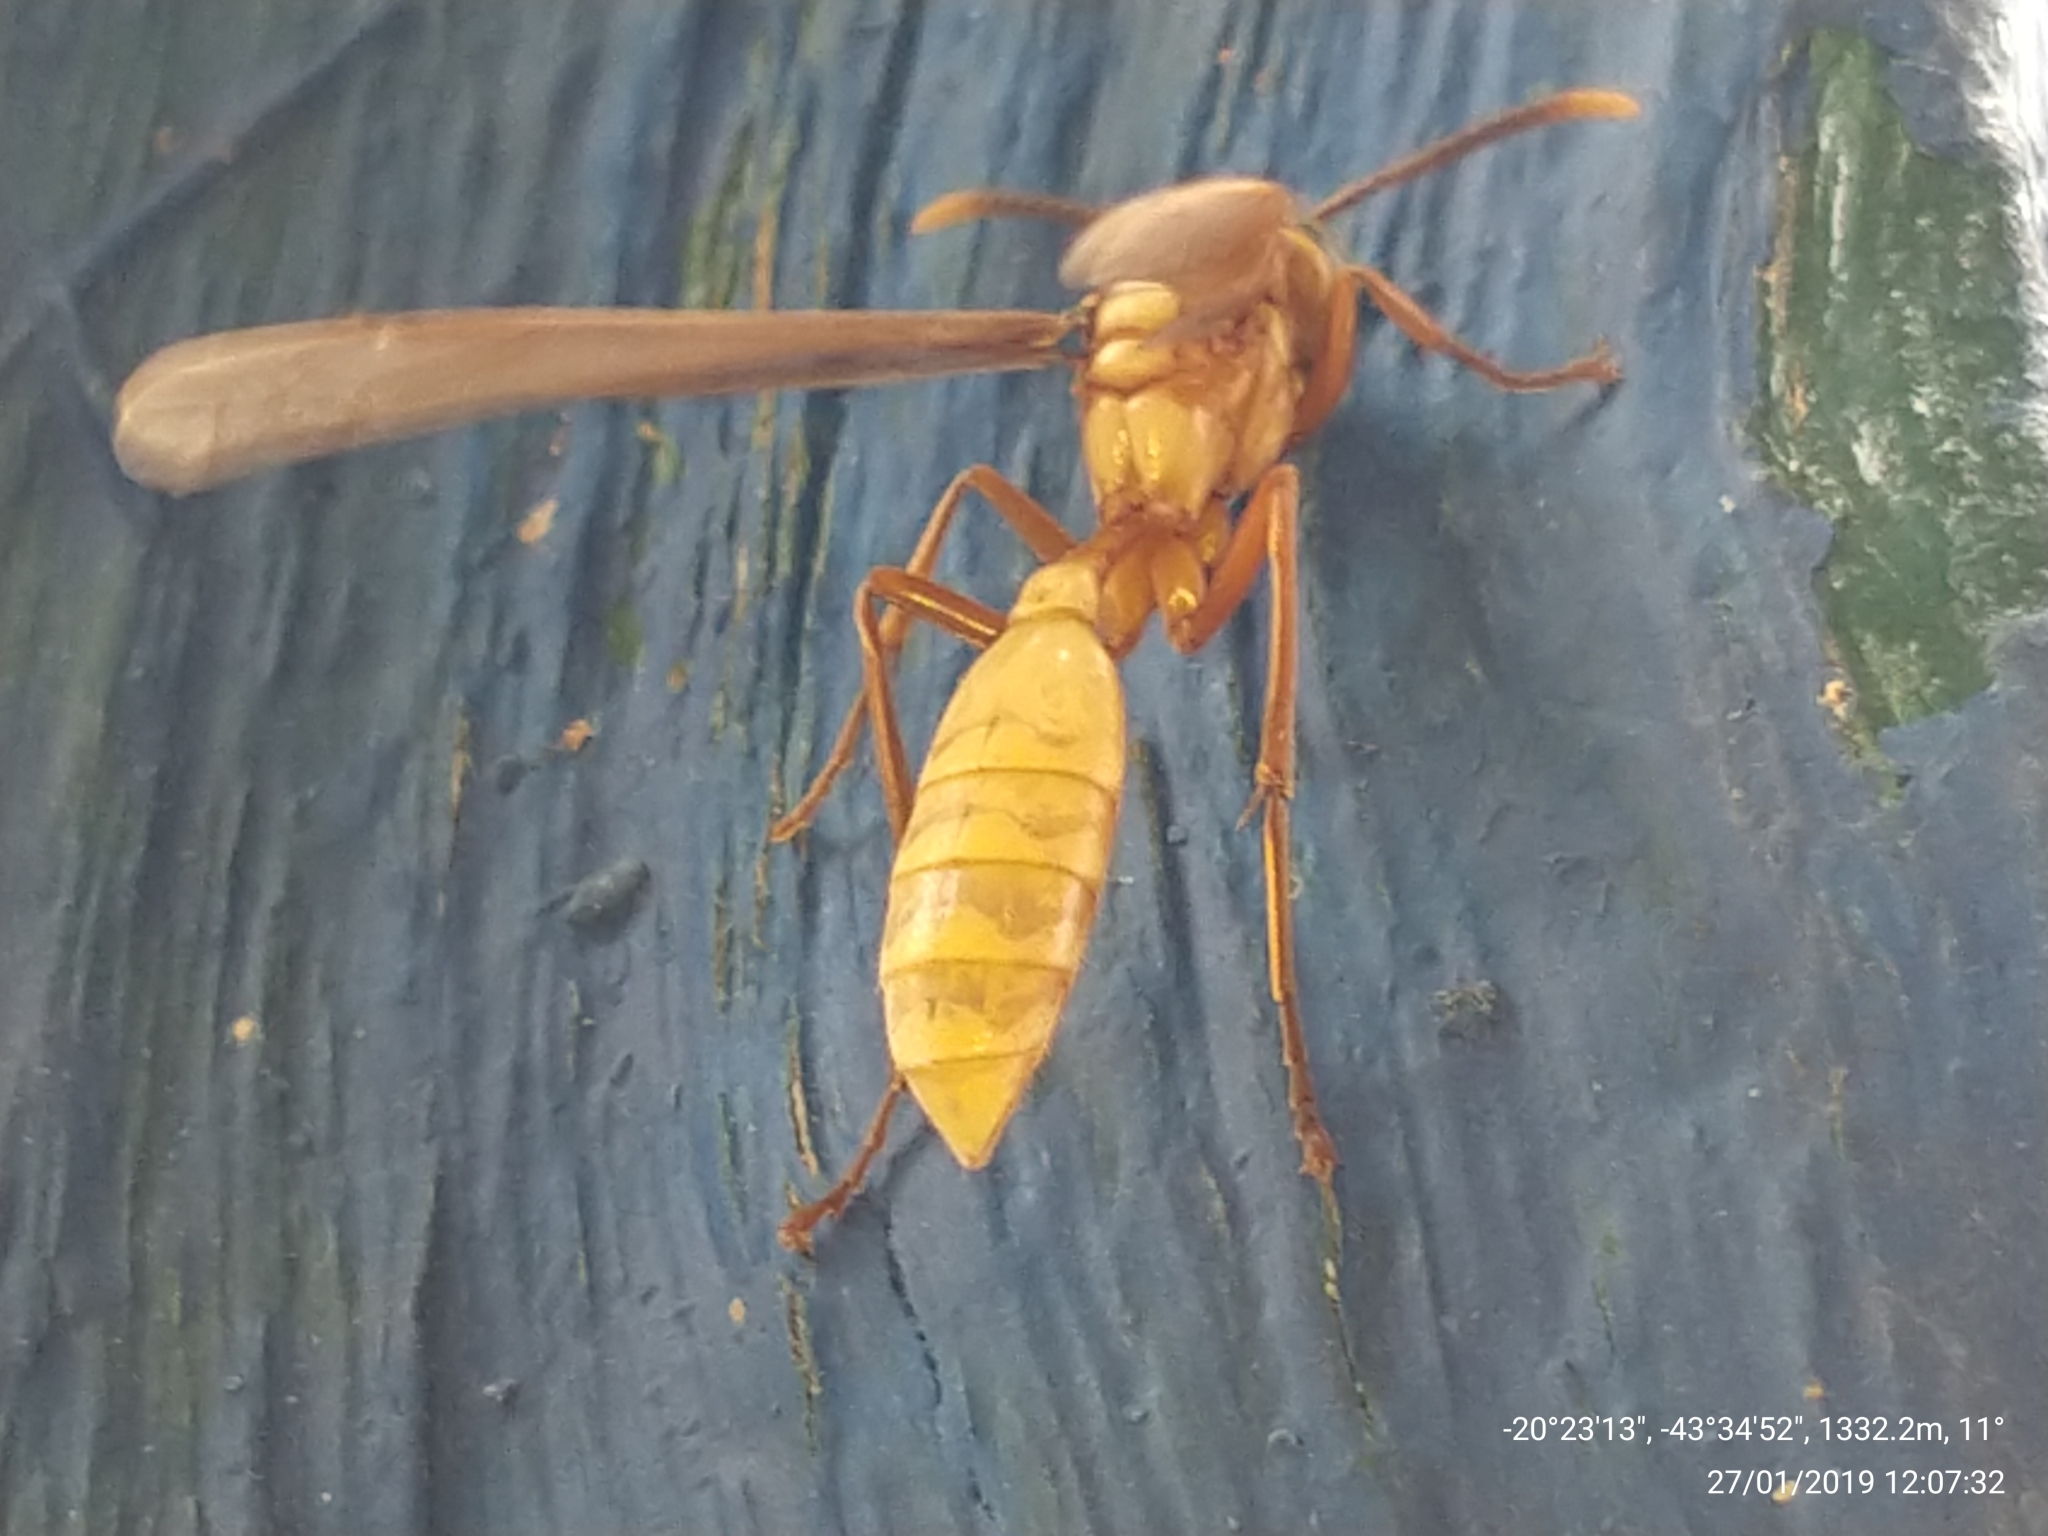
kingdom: Animalia
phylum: Arthropoda
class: Insecta
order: Hymenoptera
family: Vespidae
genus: Apoica
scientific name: Apoica flavissima
